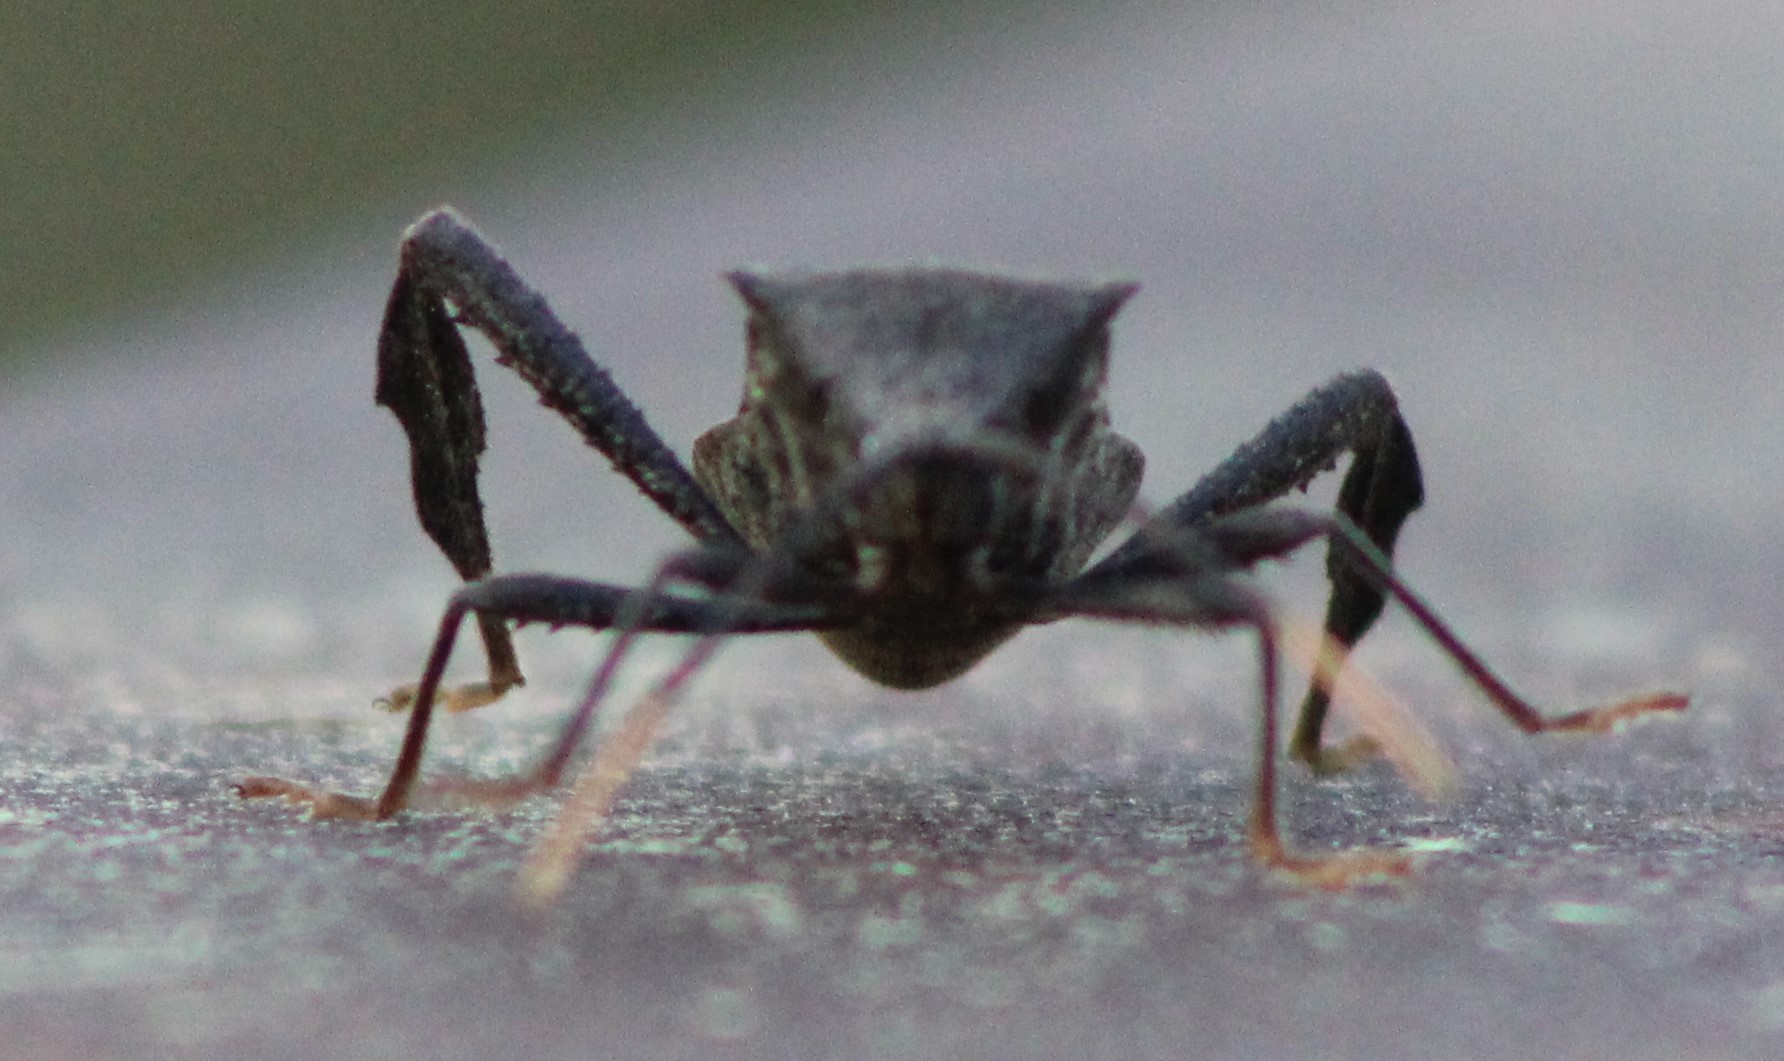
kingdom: Animalia
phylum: Arthropoda
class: Insecta
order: Hemiptera
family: Coreidae
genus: Acanthocephala
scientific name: Acanthocephala terminalis
